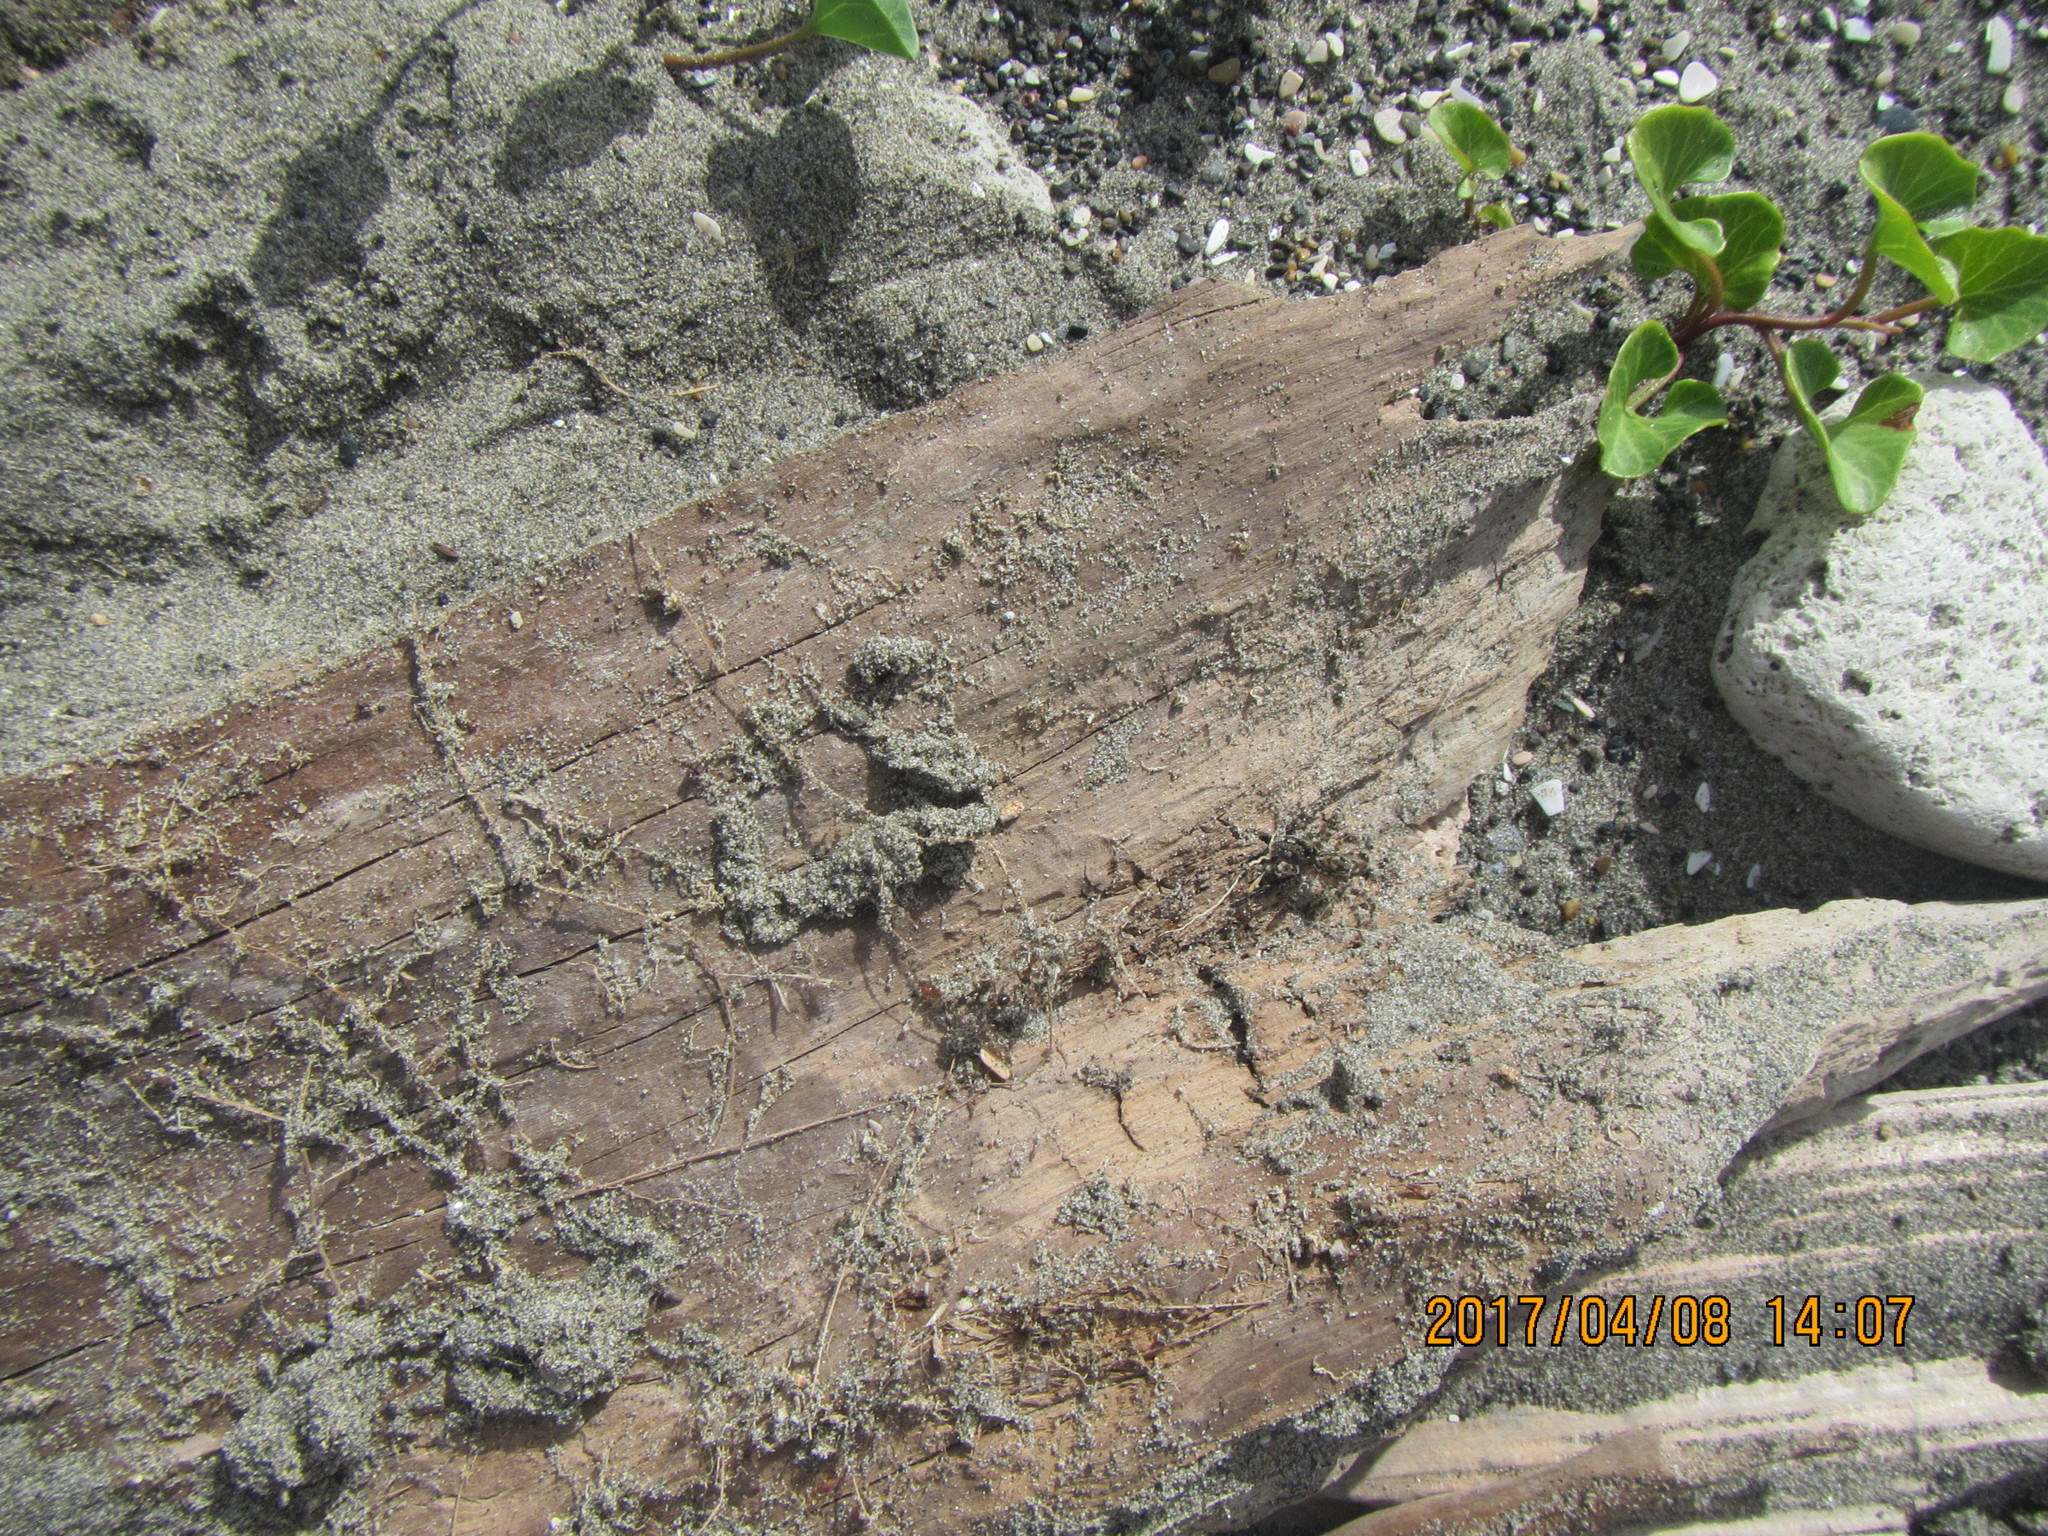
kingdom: Animalia
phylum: Arthropoda
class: Arachnida
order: Araneae
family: Lycosidae
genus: Anoteropsis
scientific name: Anoteropsis litoralis
